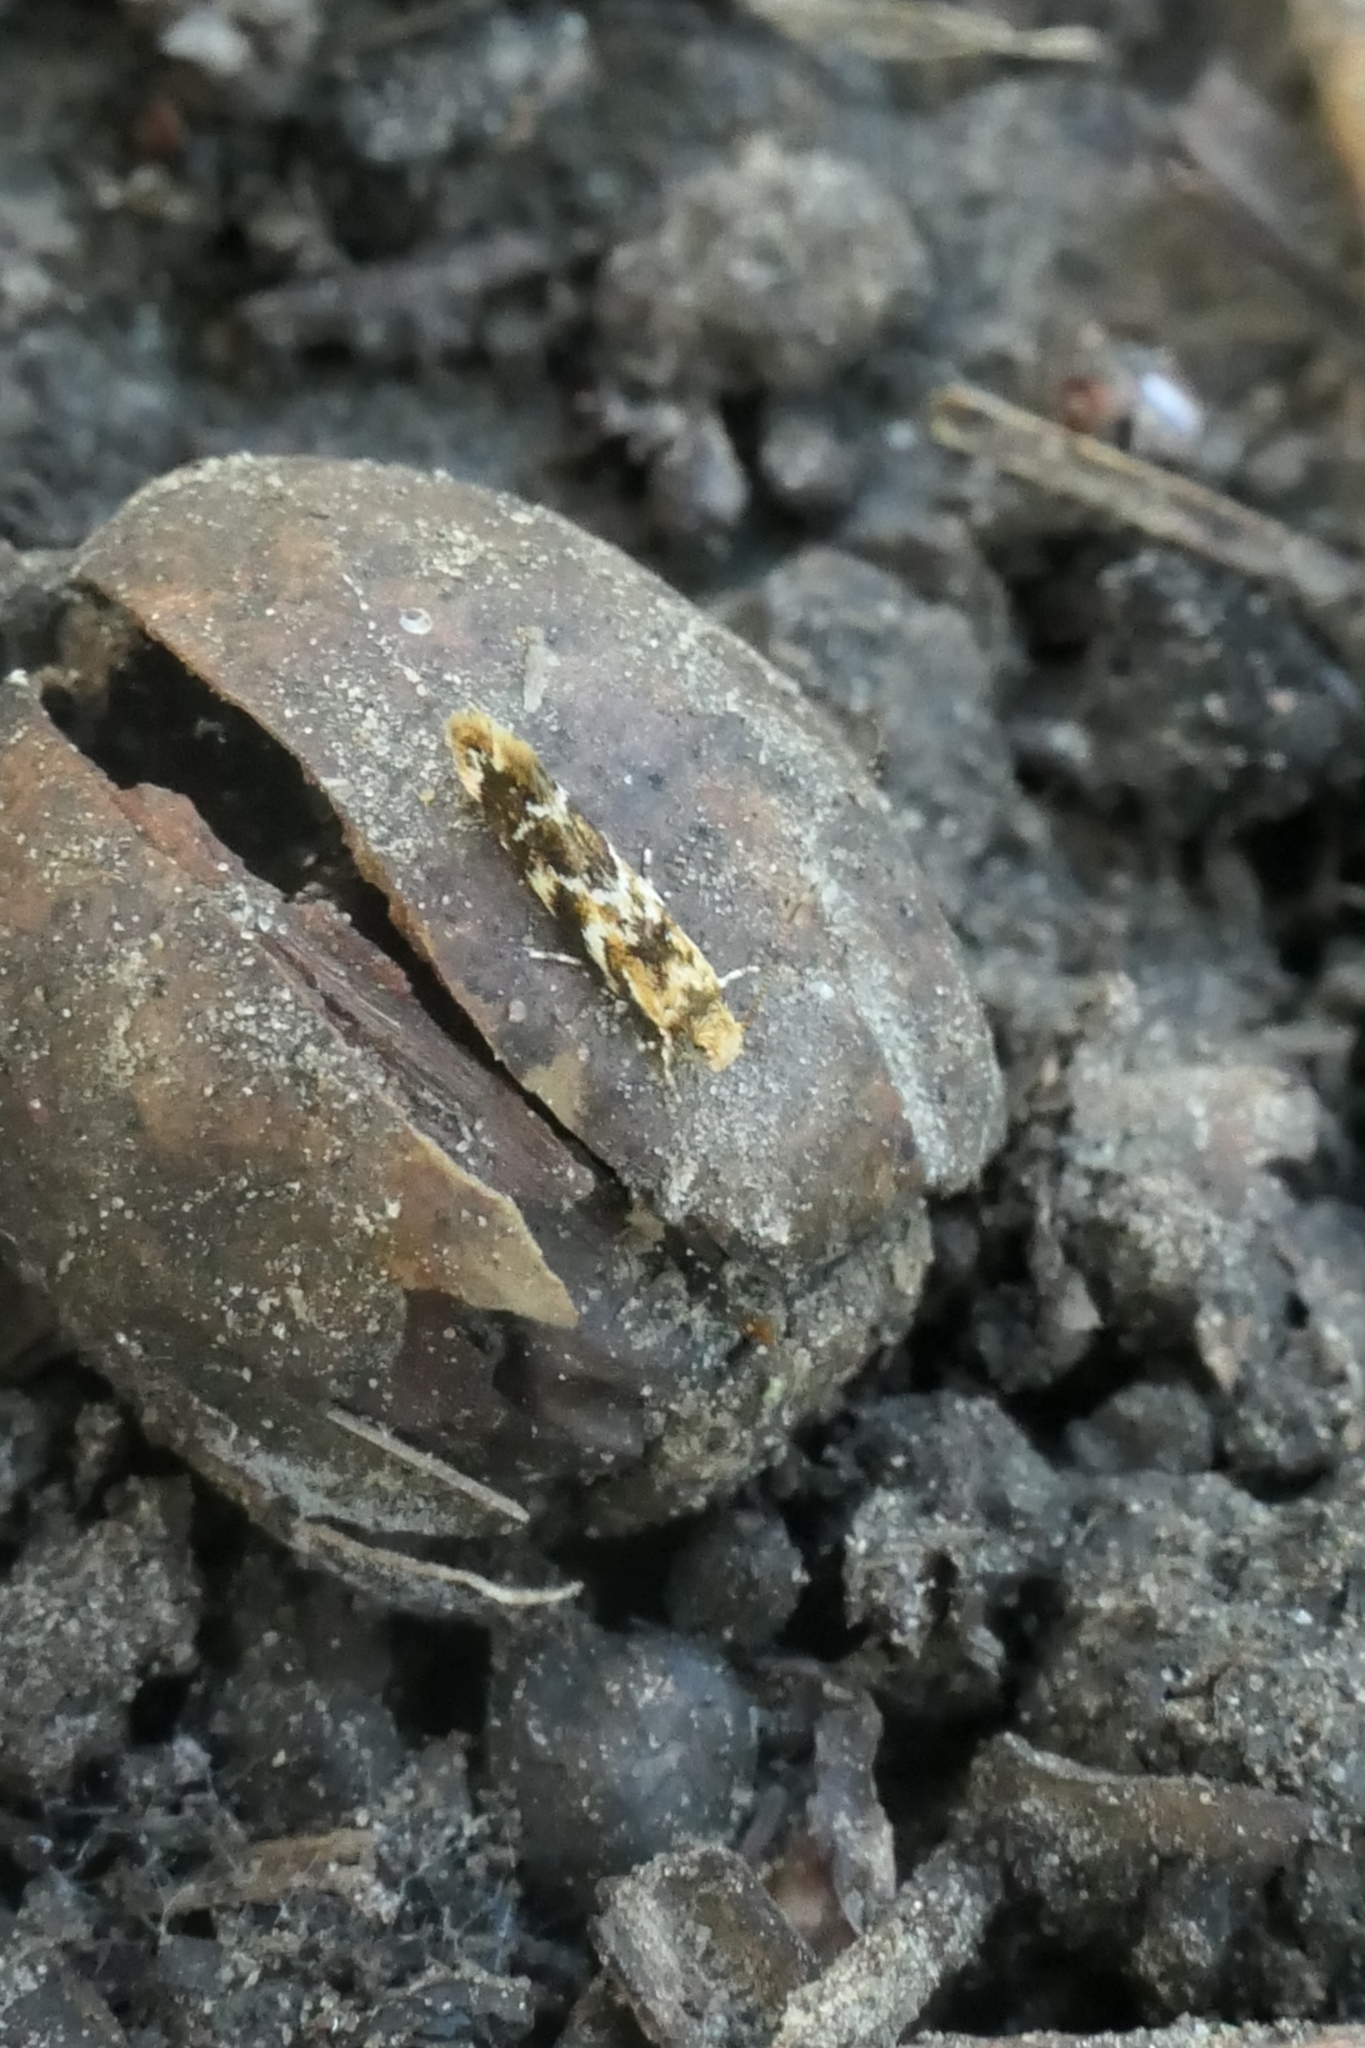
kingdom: Animalia
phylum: Arthropoda
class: Insecta
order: Lepidoptera
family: Dryadaulidae
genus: Dryadaula
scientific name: Dryadaula pactolia
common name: Cellar clothes
